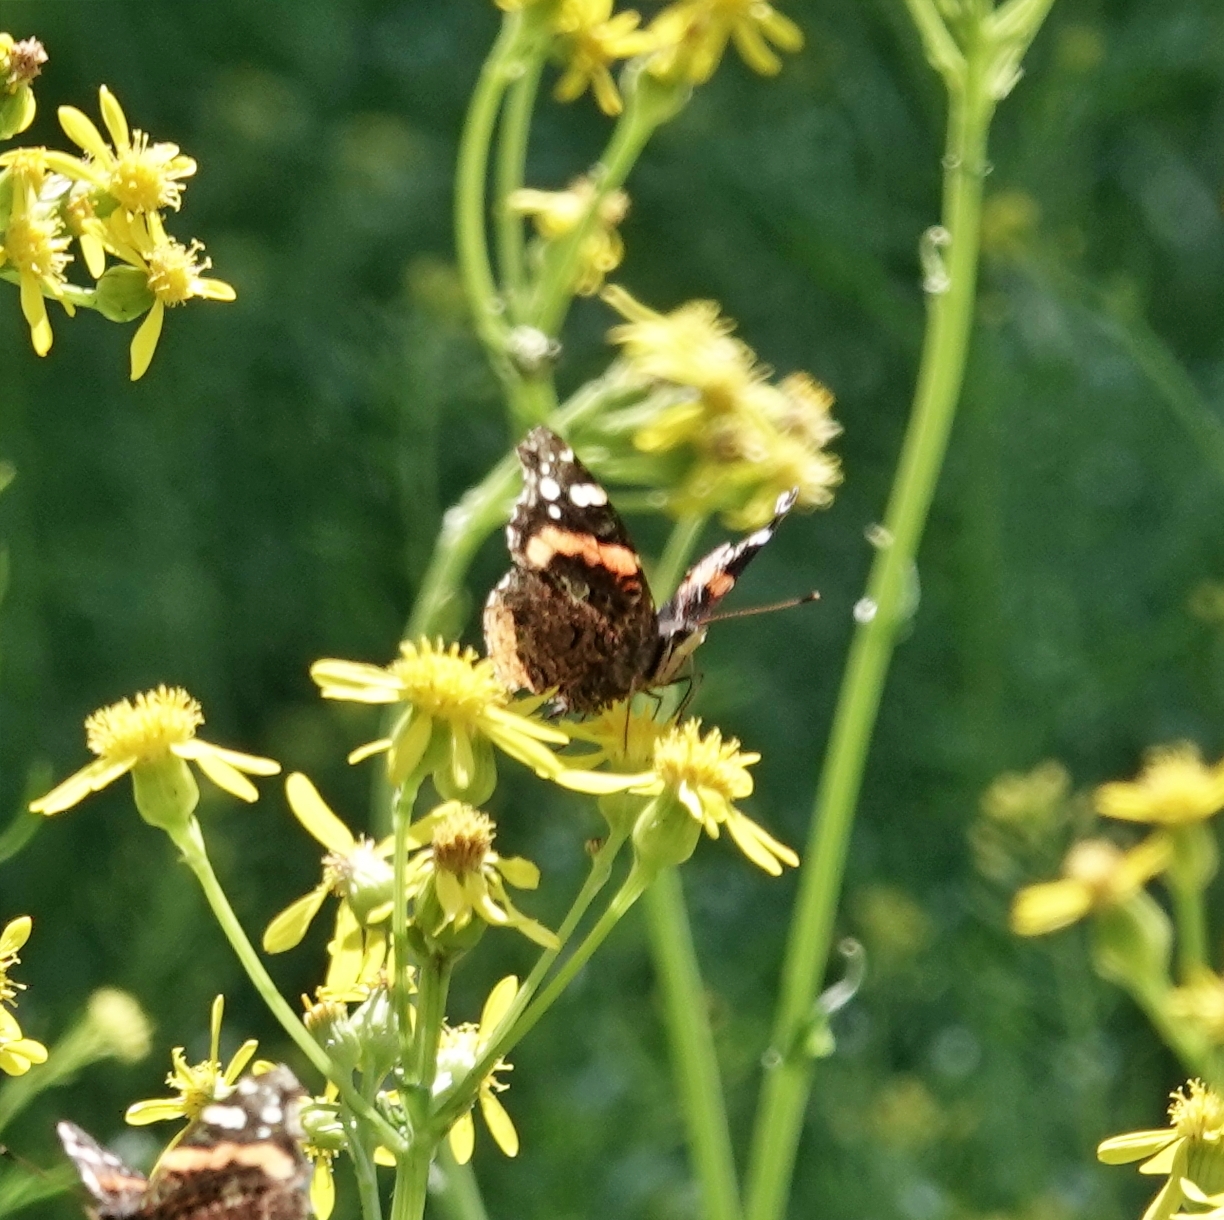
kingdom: Animalia
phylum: Arthropoda
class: Insecta
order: Lepidoptera
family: Nymphalidae
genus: Vanessa
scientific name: Vanessa atalanta
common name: Red admiral
